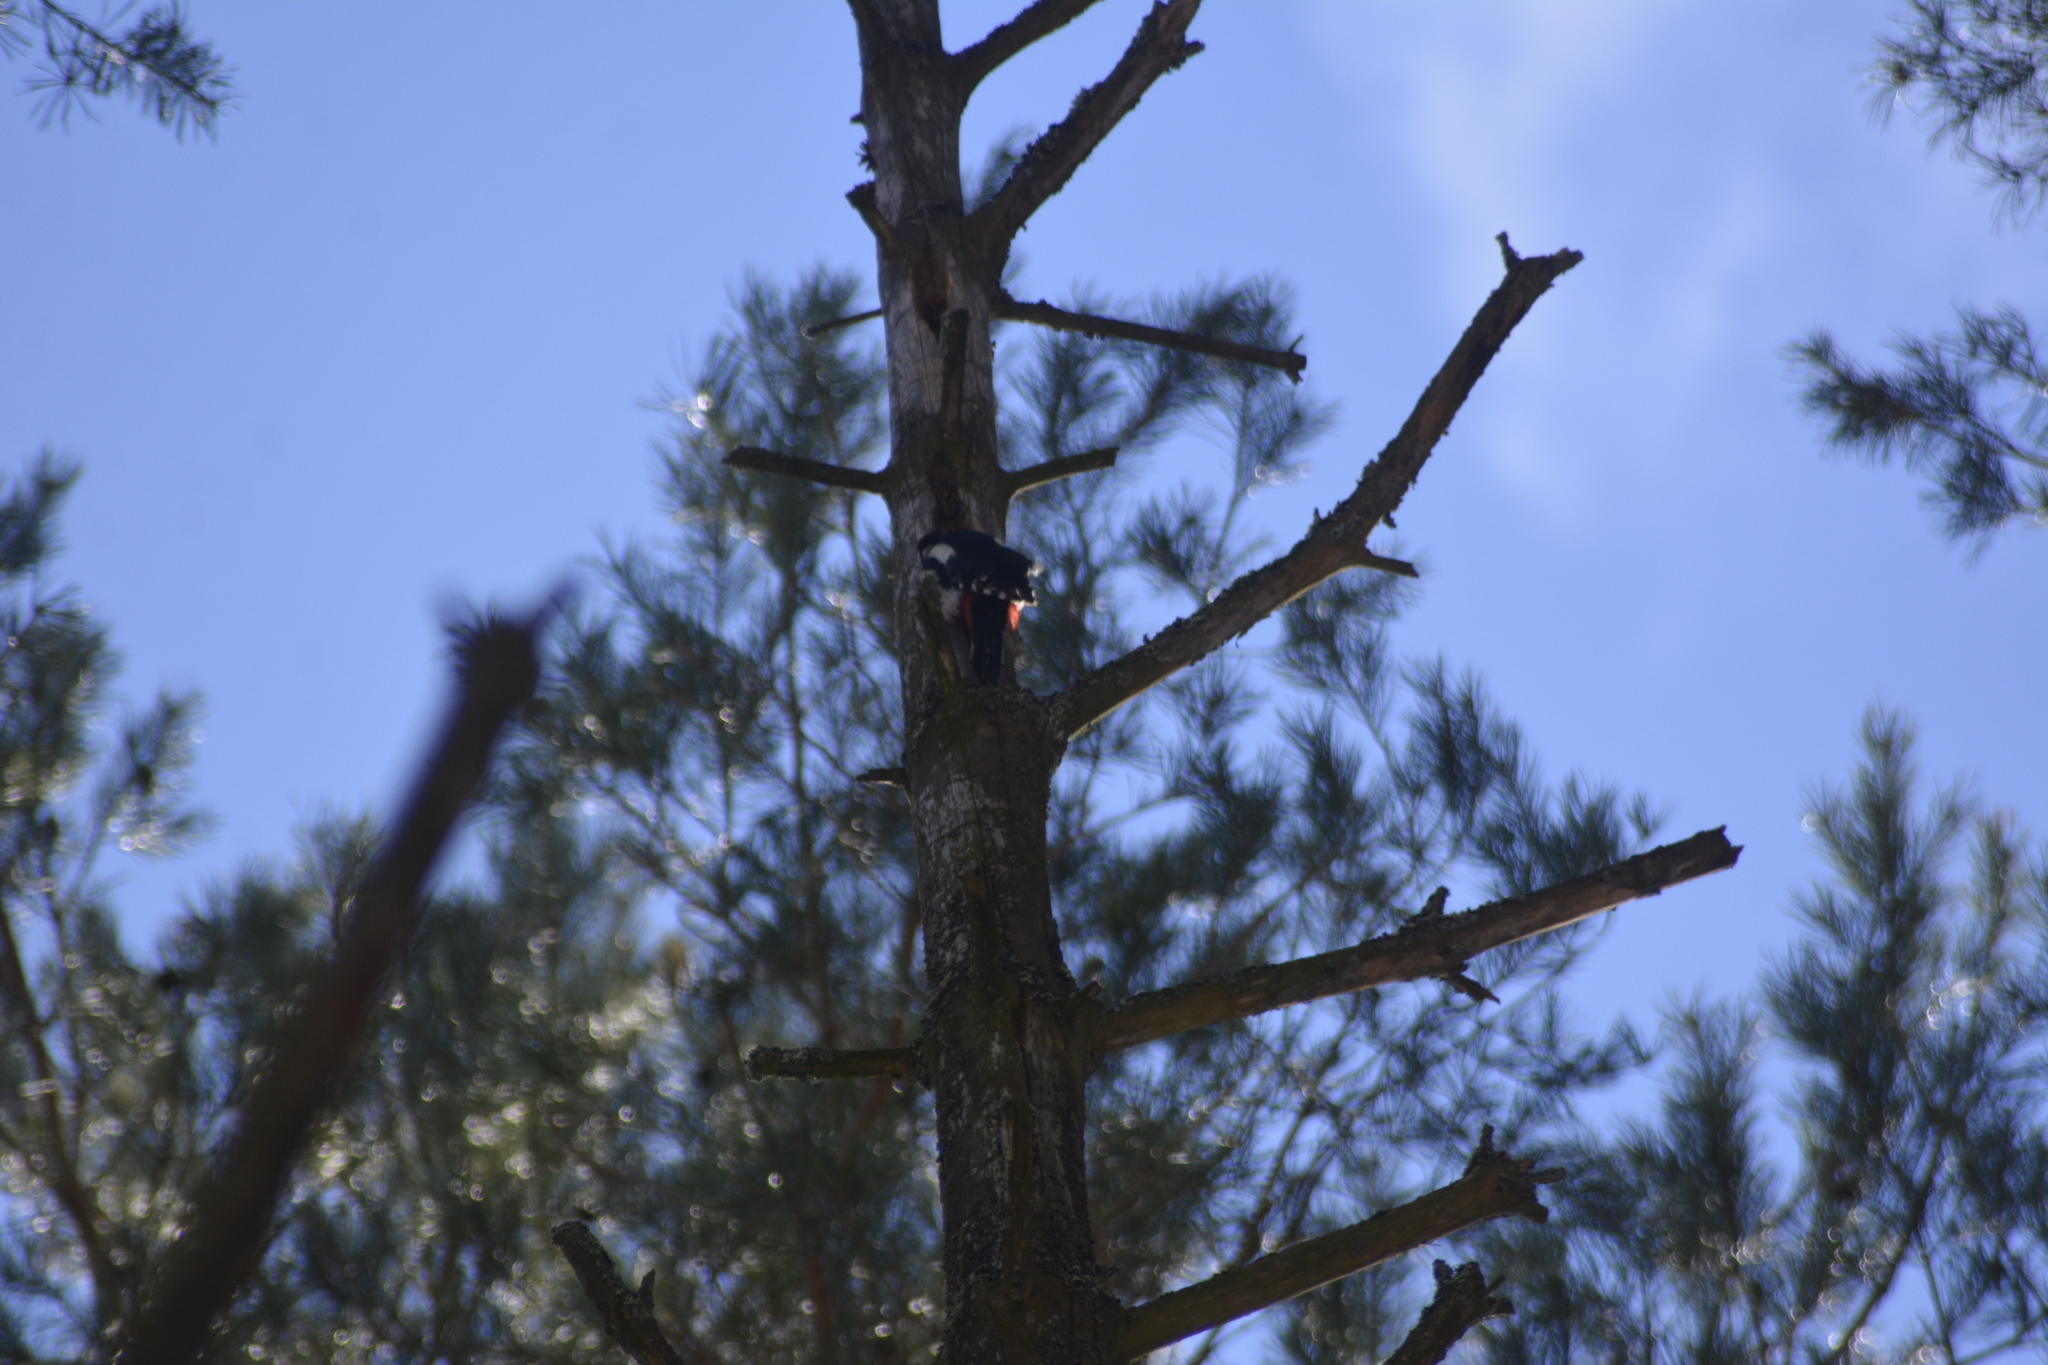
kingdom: Animalia
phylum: Chordata
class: Aves
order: Piciformes
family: Picidae
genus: Dendrocopos
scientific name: Dendrocopos major
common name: Great spotted woodpecker
